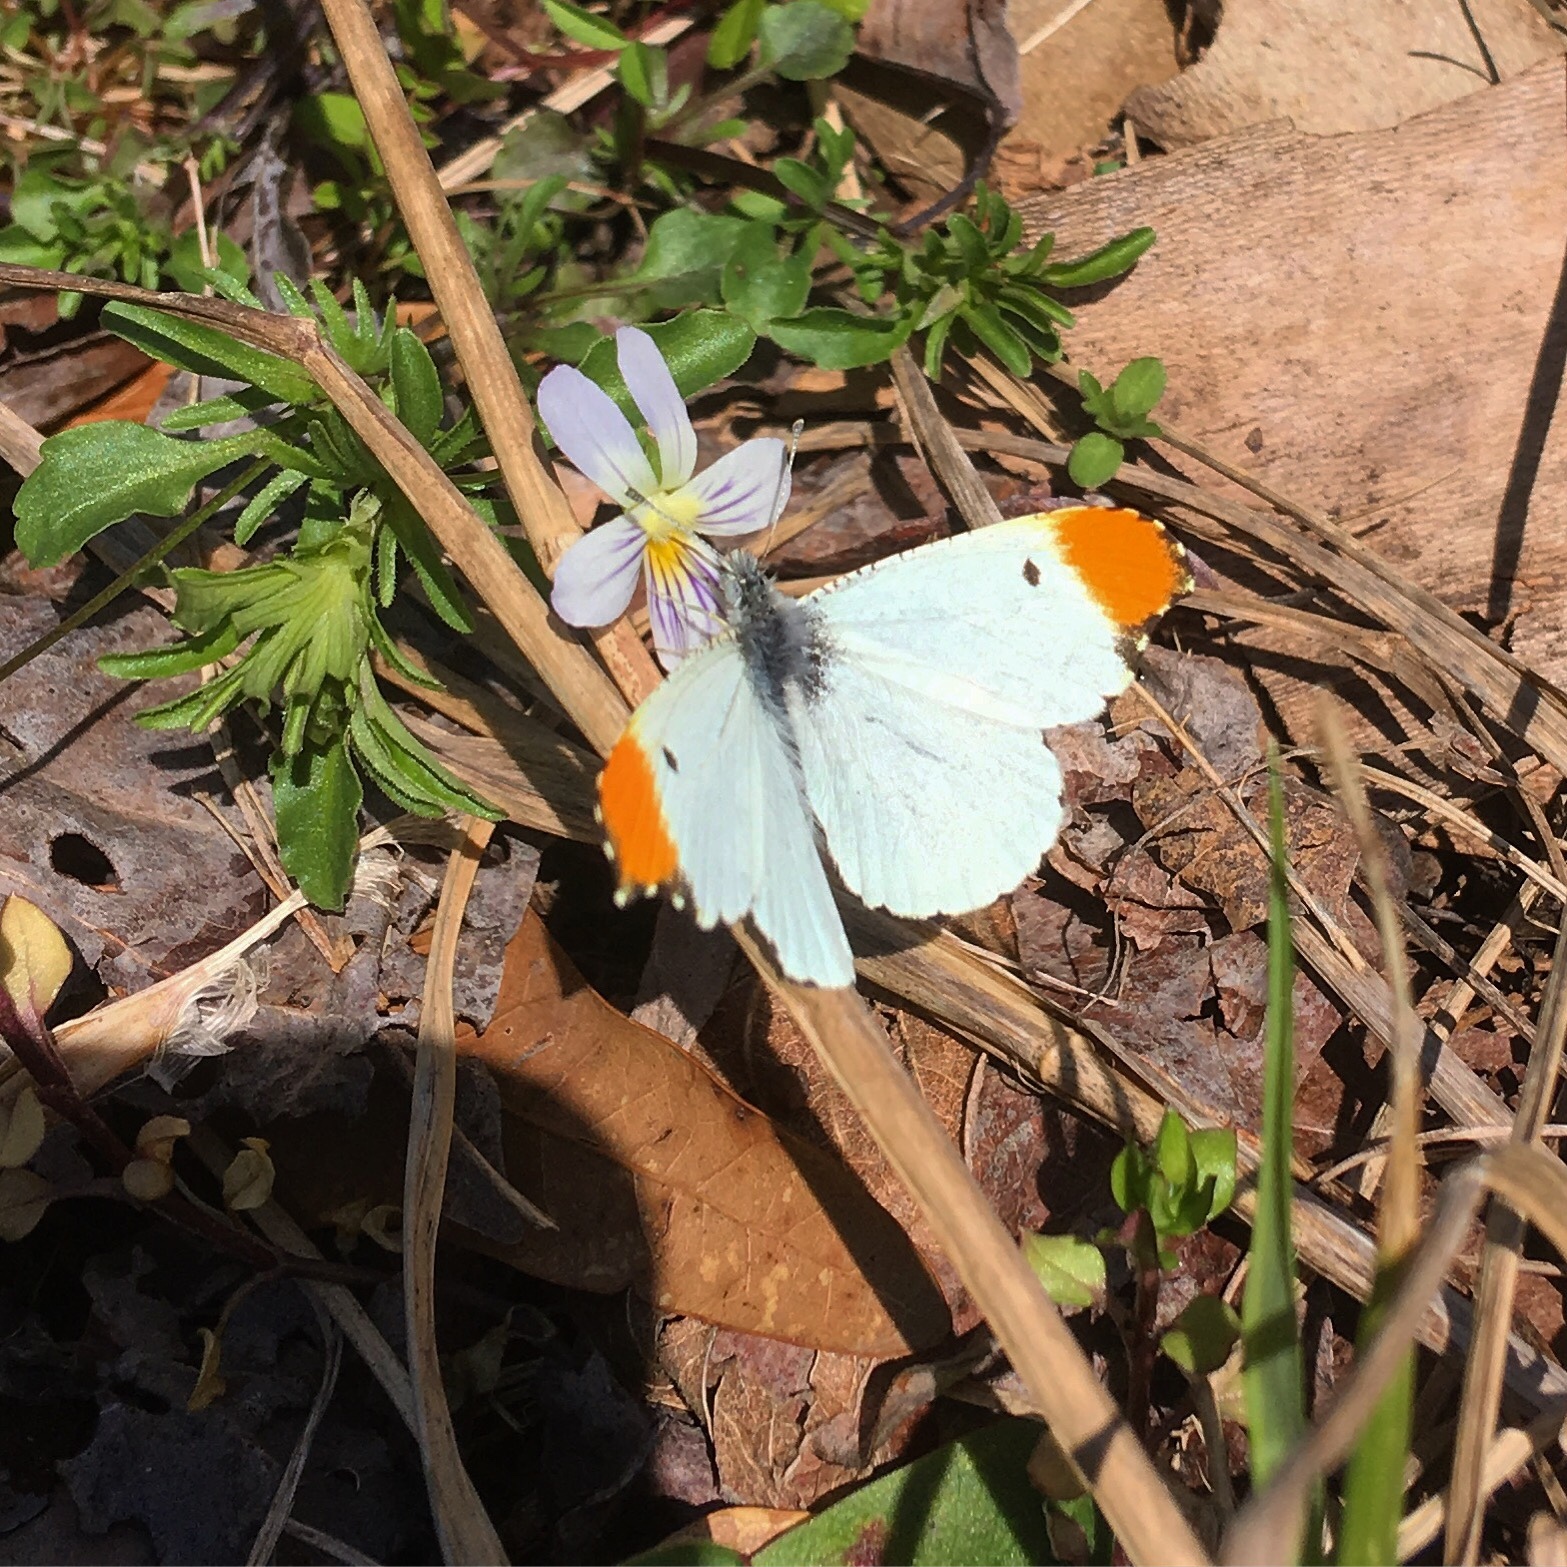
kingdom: Animalia
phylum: Arthropoda
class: Insecta
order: Lepidoptera
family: Pieridae
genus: Anthocharis
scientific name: Anthocharis midea
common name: Falcate orangetip
